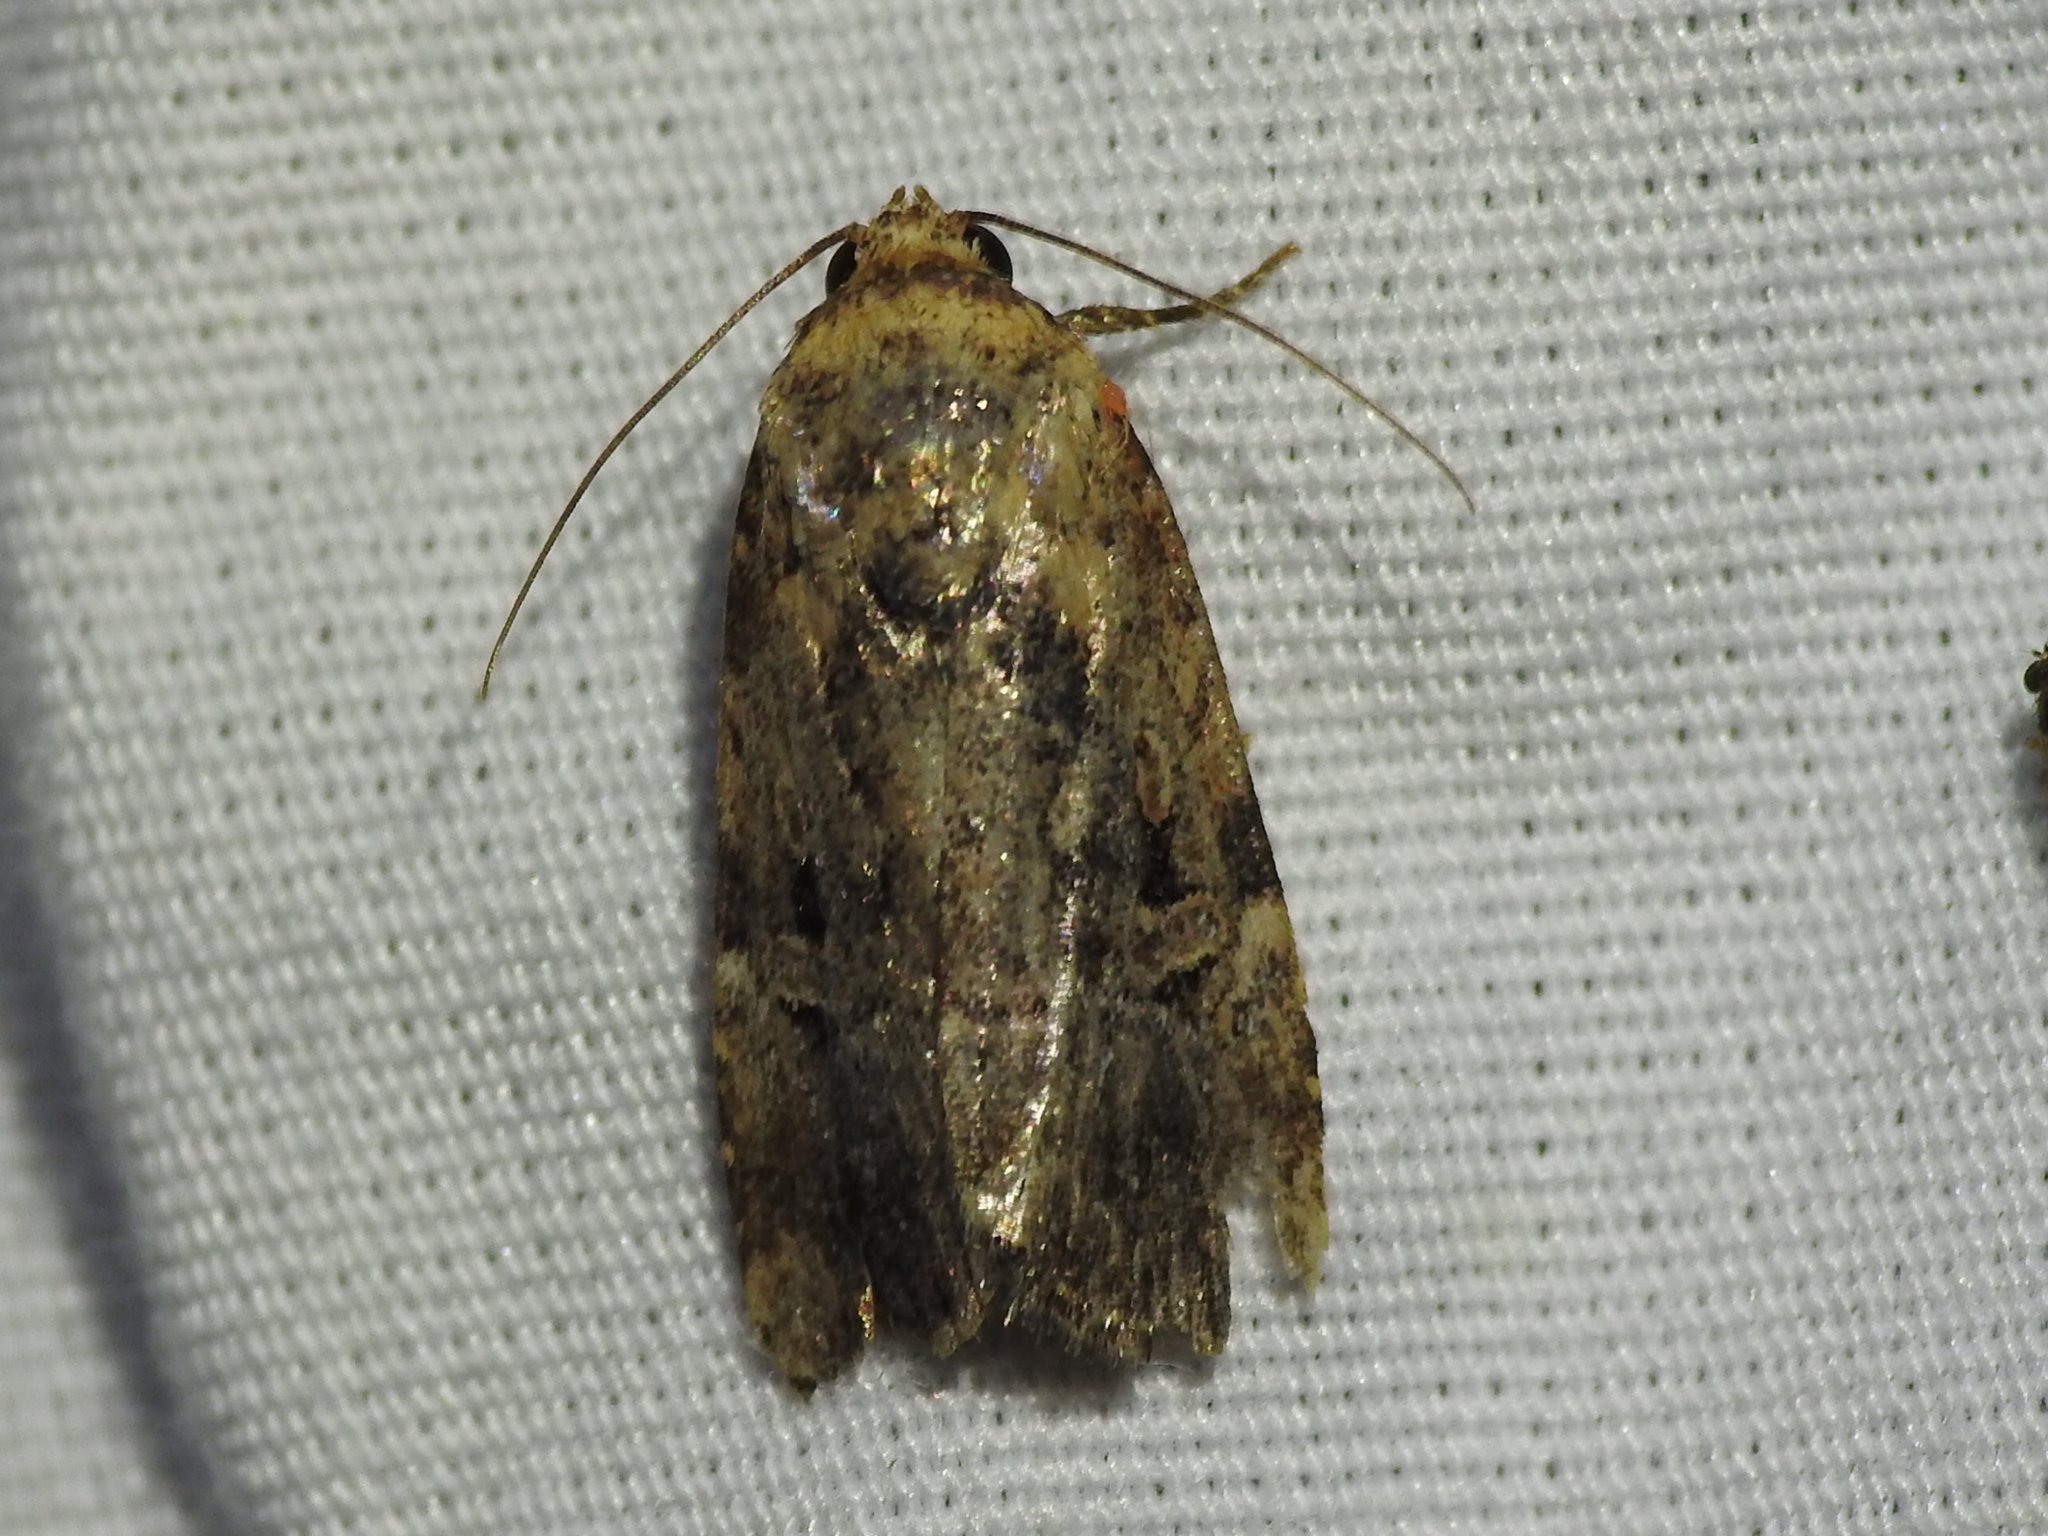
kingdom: Animalia
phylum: Arthropoda
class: Insecta
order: Lepidoptera
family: Noctuidae
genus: Elaphria
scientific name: Elaphria chalcedonia
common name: Chalcedony midget
